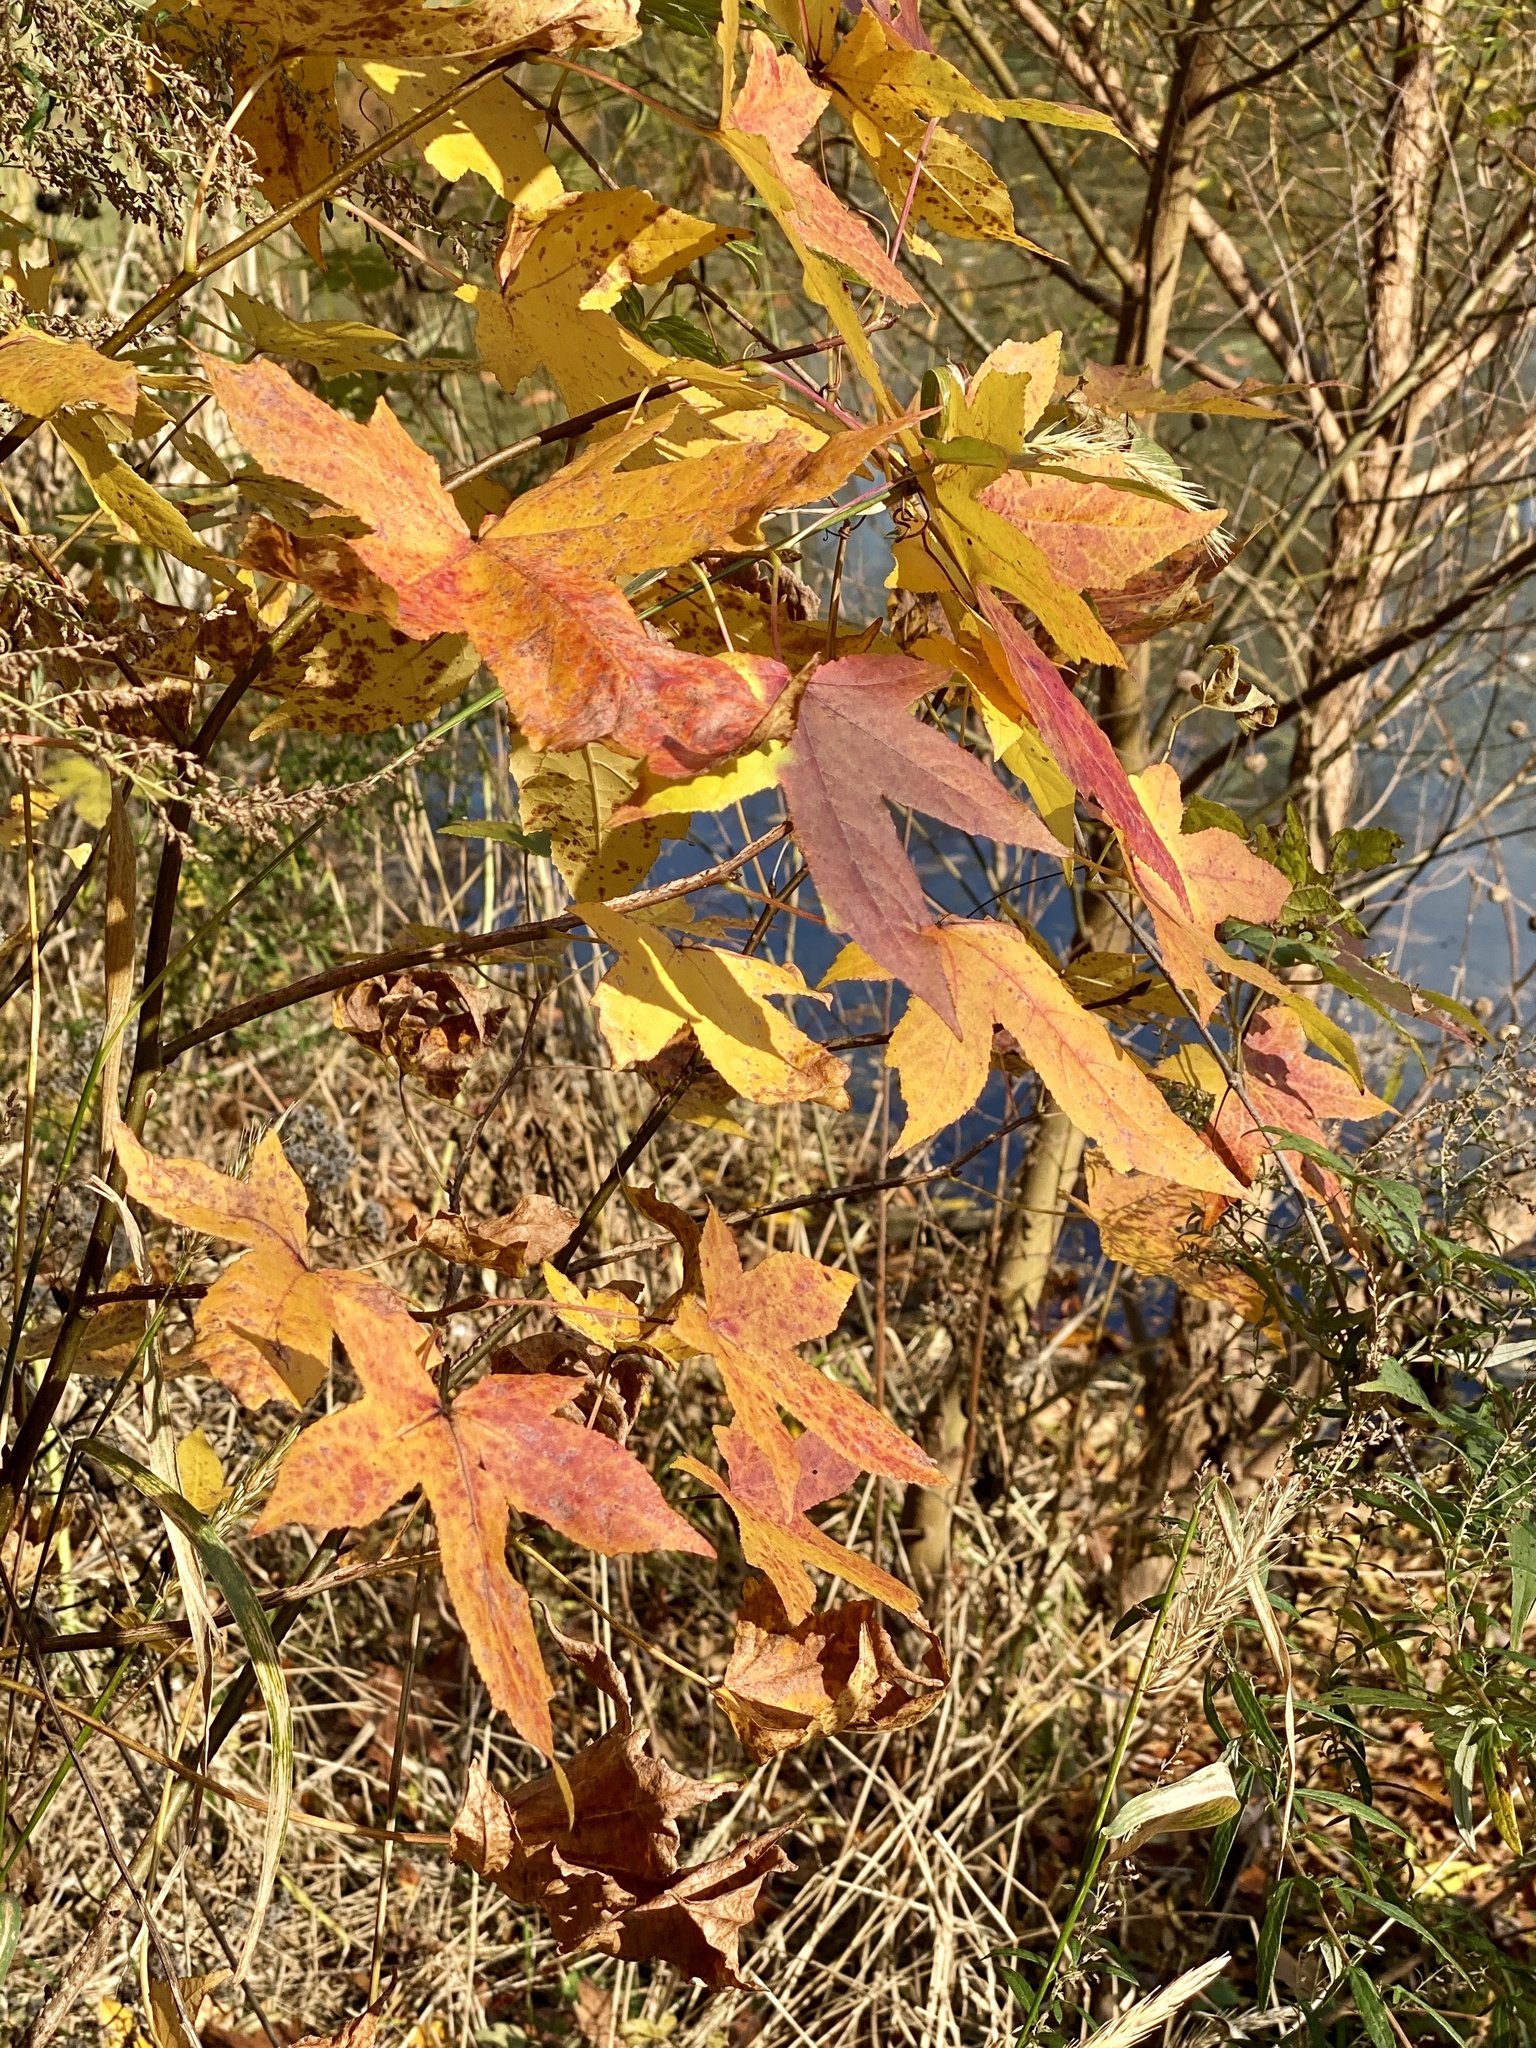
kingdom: Plantae
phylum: Tracheophyta
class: Magnoliopsida
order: Saxifragales
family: Altingiaceae
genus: Liquidambar
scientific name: Liquidambar styraciflua
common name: Sweet gum
